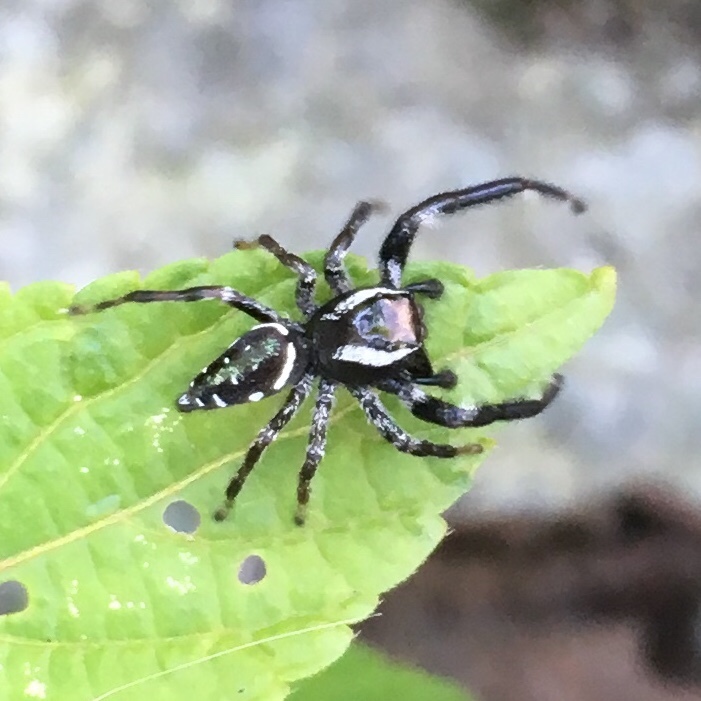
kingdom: Animalia
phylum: Arthropoda
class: Arachnida
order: Araneae
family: Salticidae
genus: Paraphidippus
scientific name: Paraphidippus aurantius
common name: Jumping spiders
